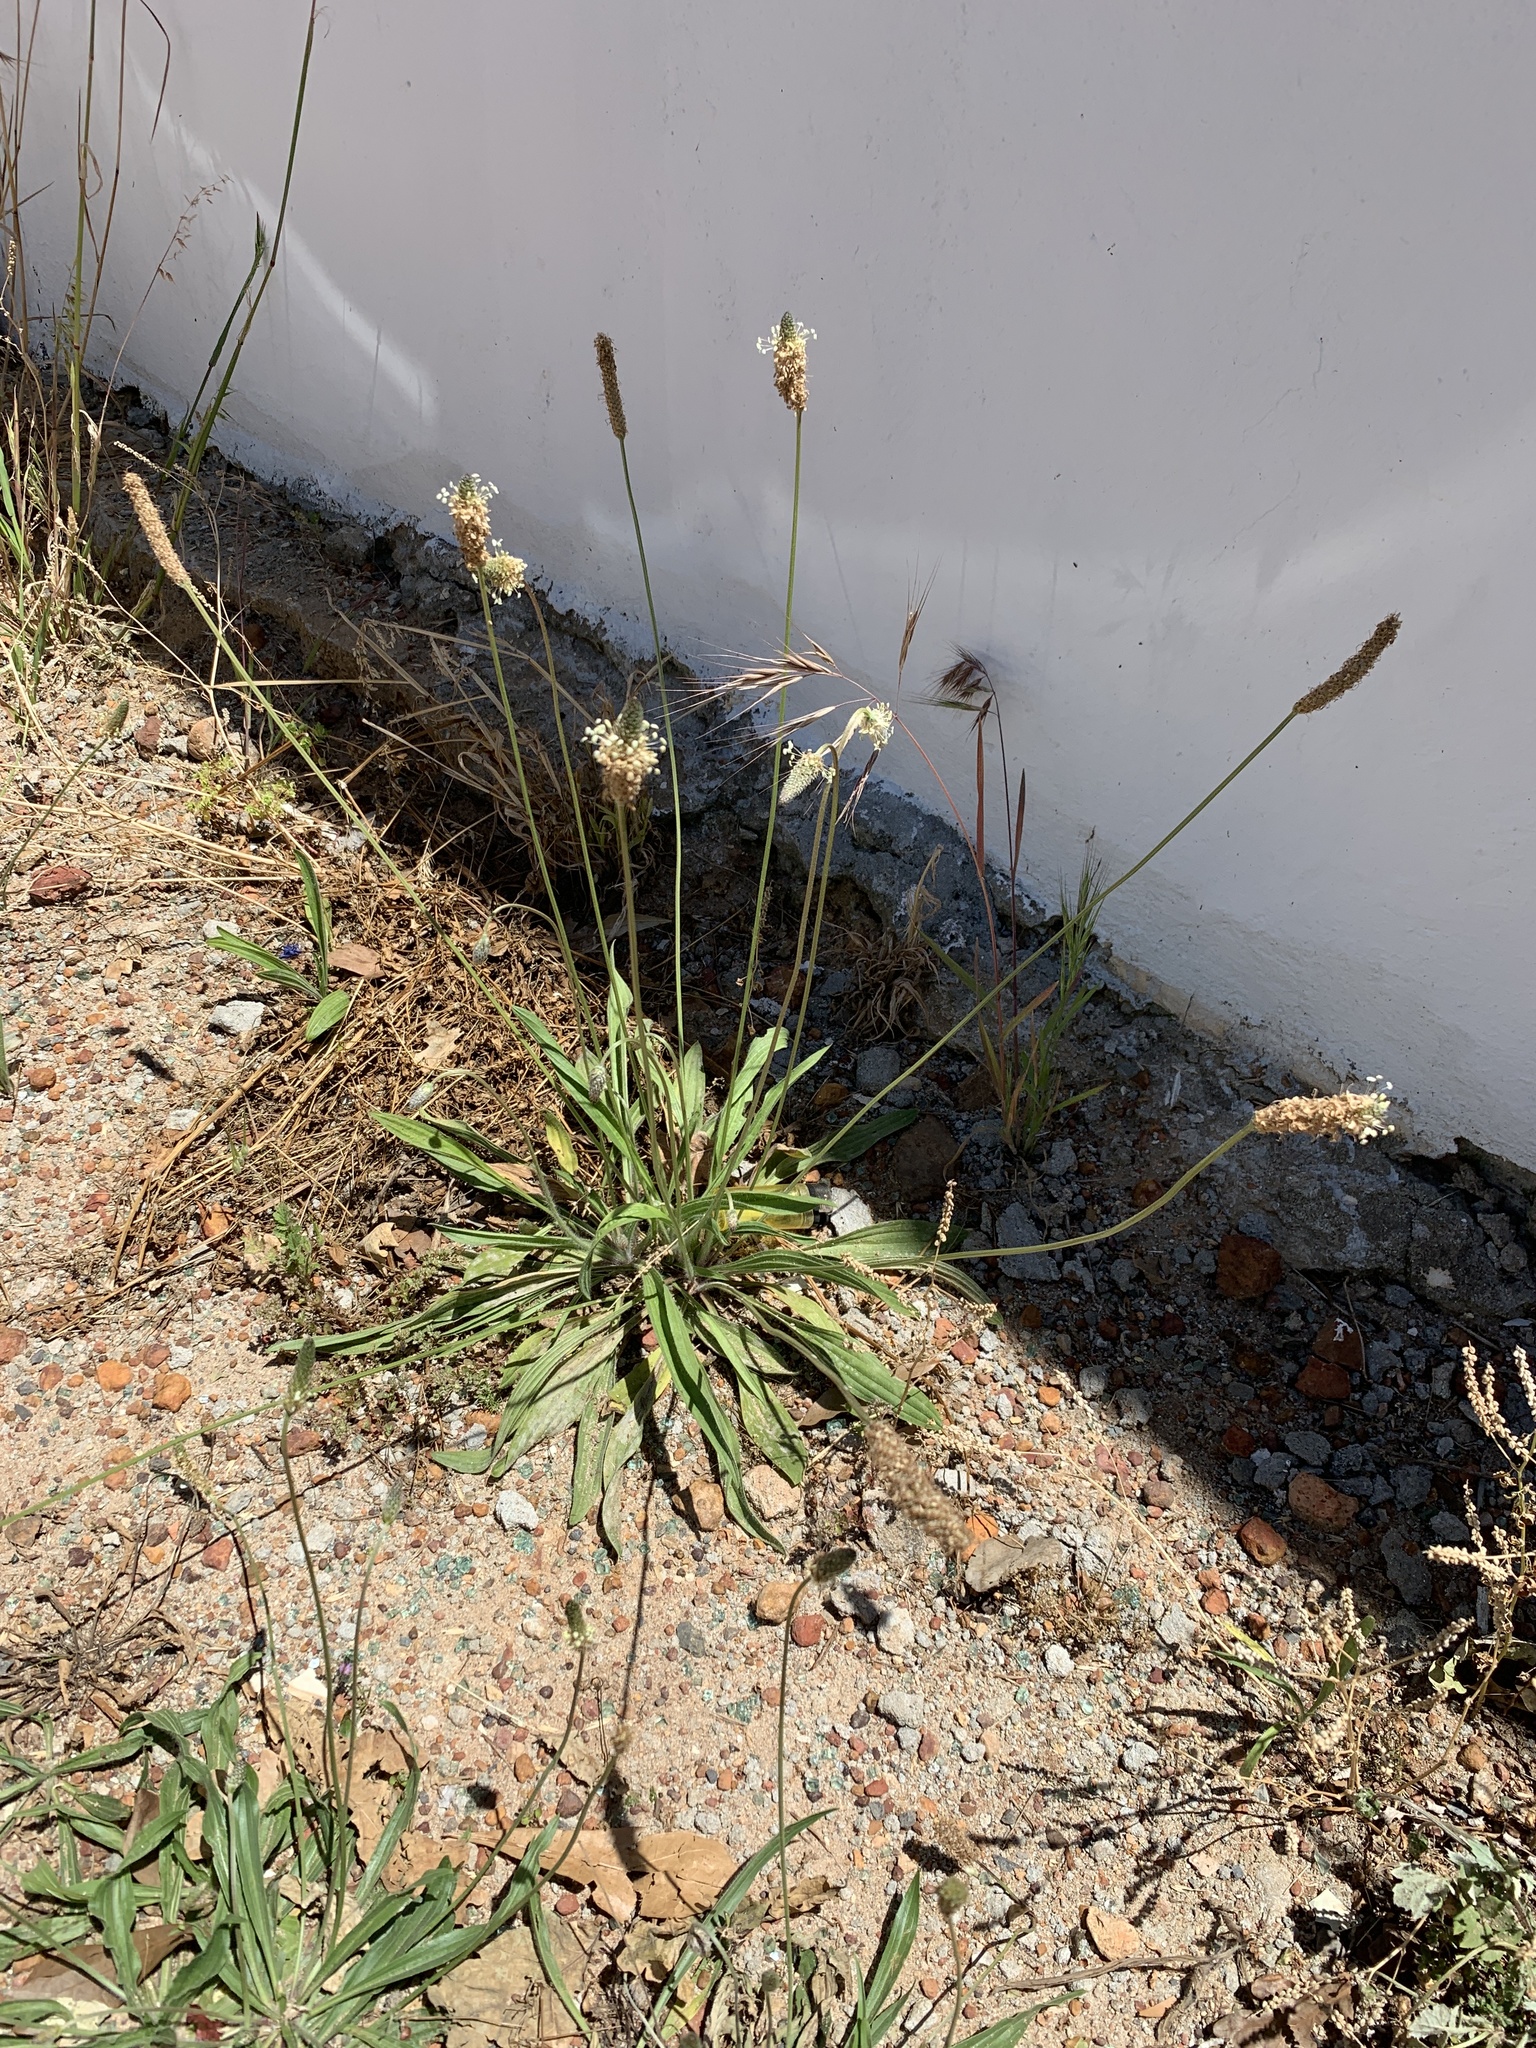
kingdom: Plantae
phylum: Tracheophyta
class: Magnoliopsida
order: Lamiales
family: Plantaginaceae
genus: Plantago
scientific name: Plantago lanceolata
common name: Ribwort plantain
